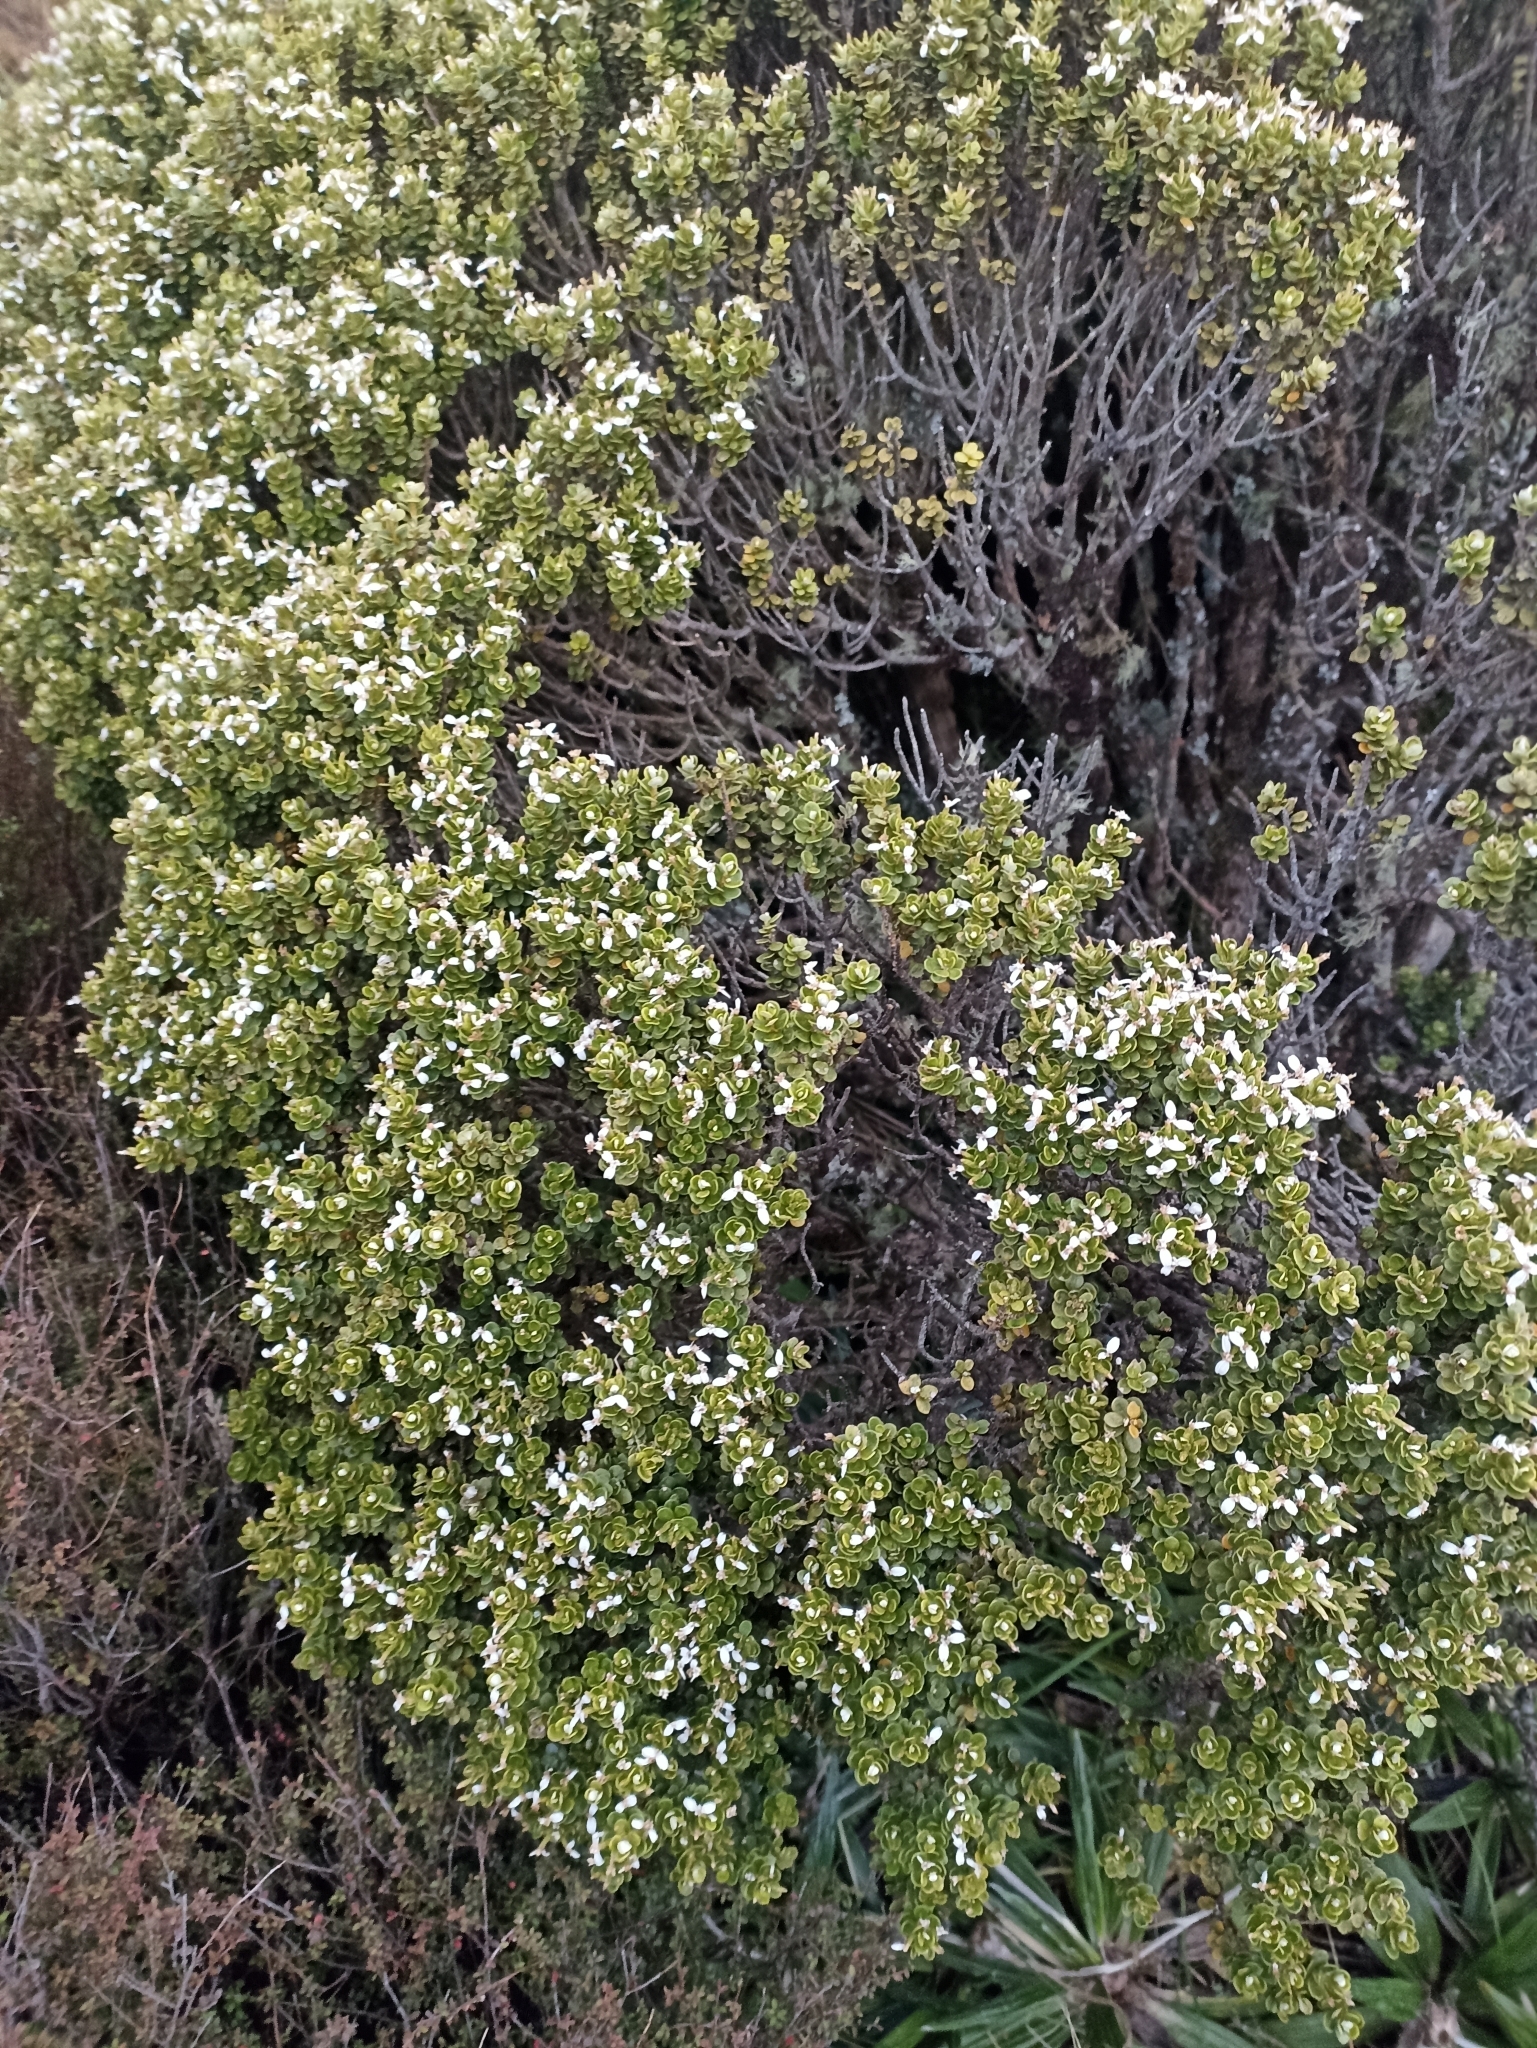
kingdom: Plantae
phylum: Tracheophyta
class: Magnoliopsida
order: Asterales
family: Asteraceae
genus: Olearia
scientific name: Olearia nummularifolia
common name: Sticky daisybush
